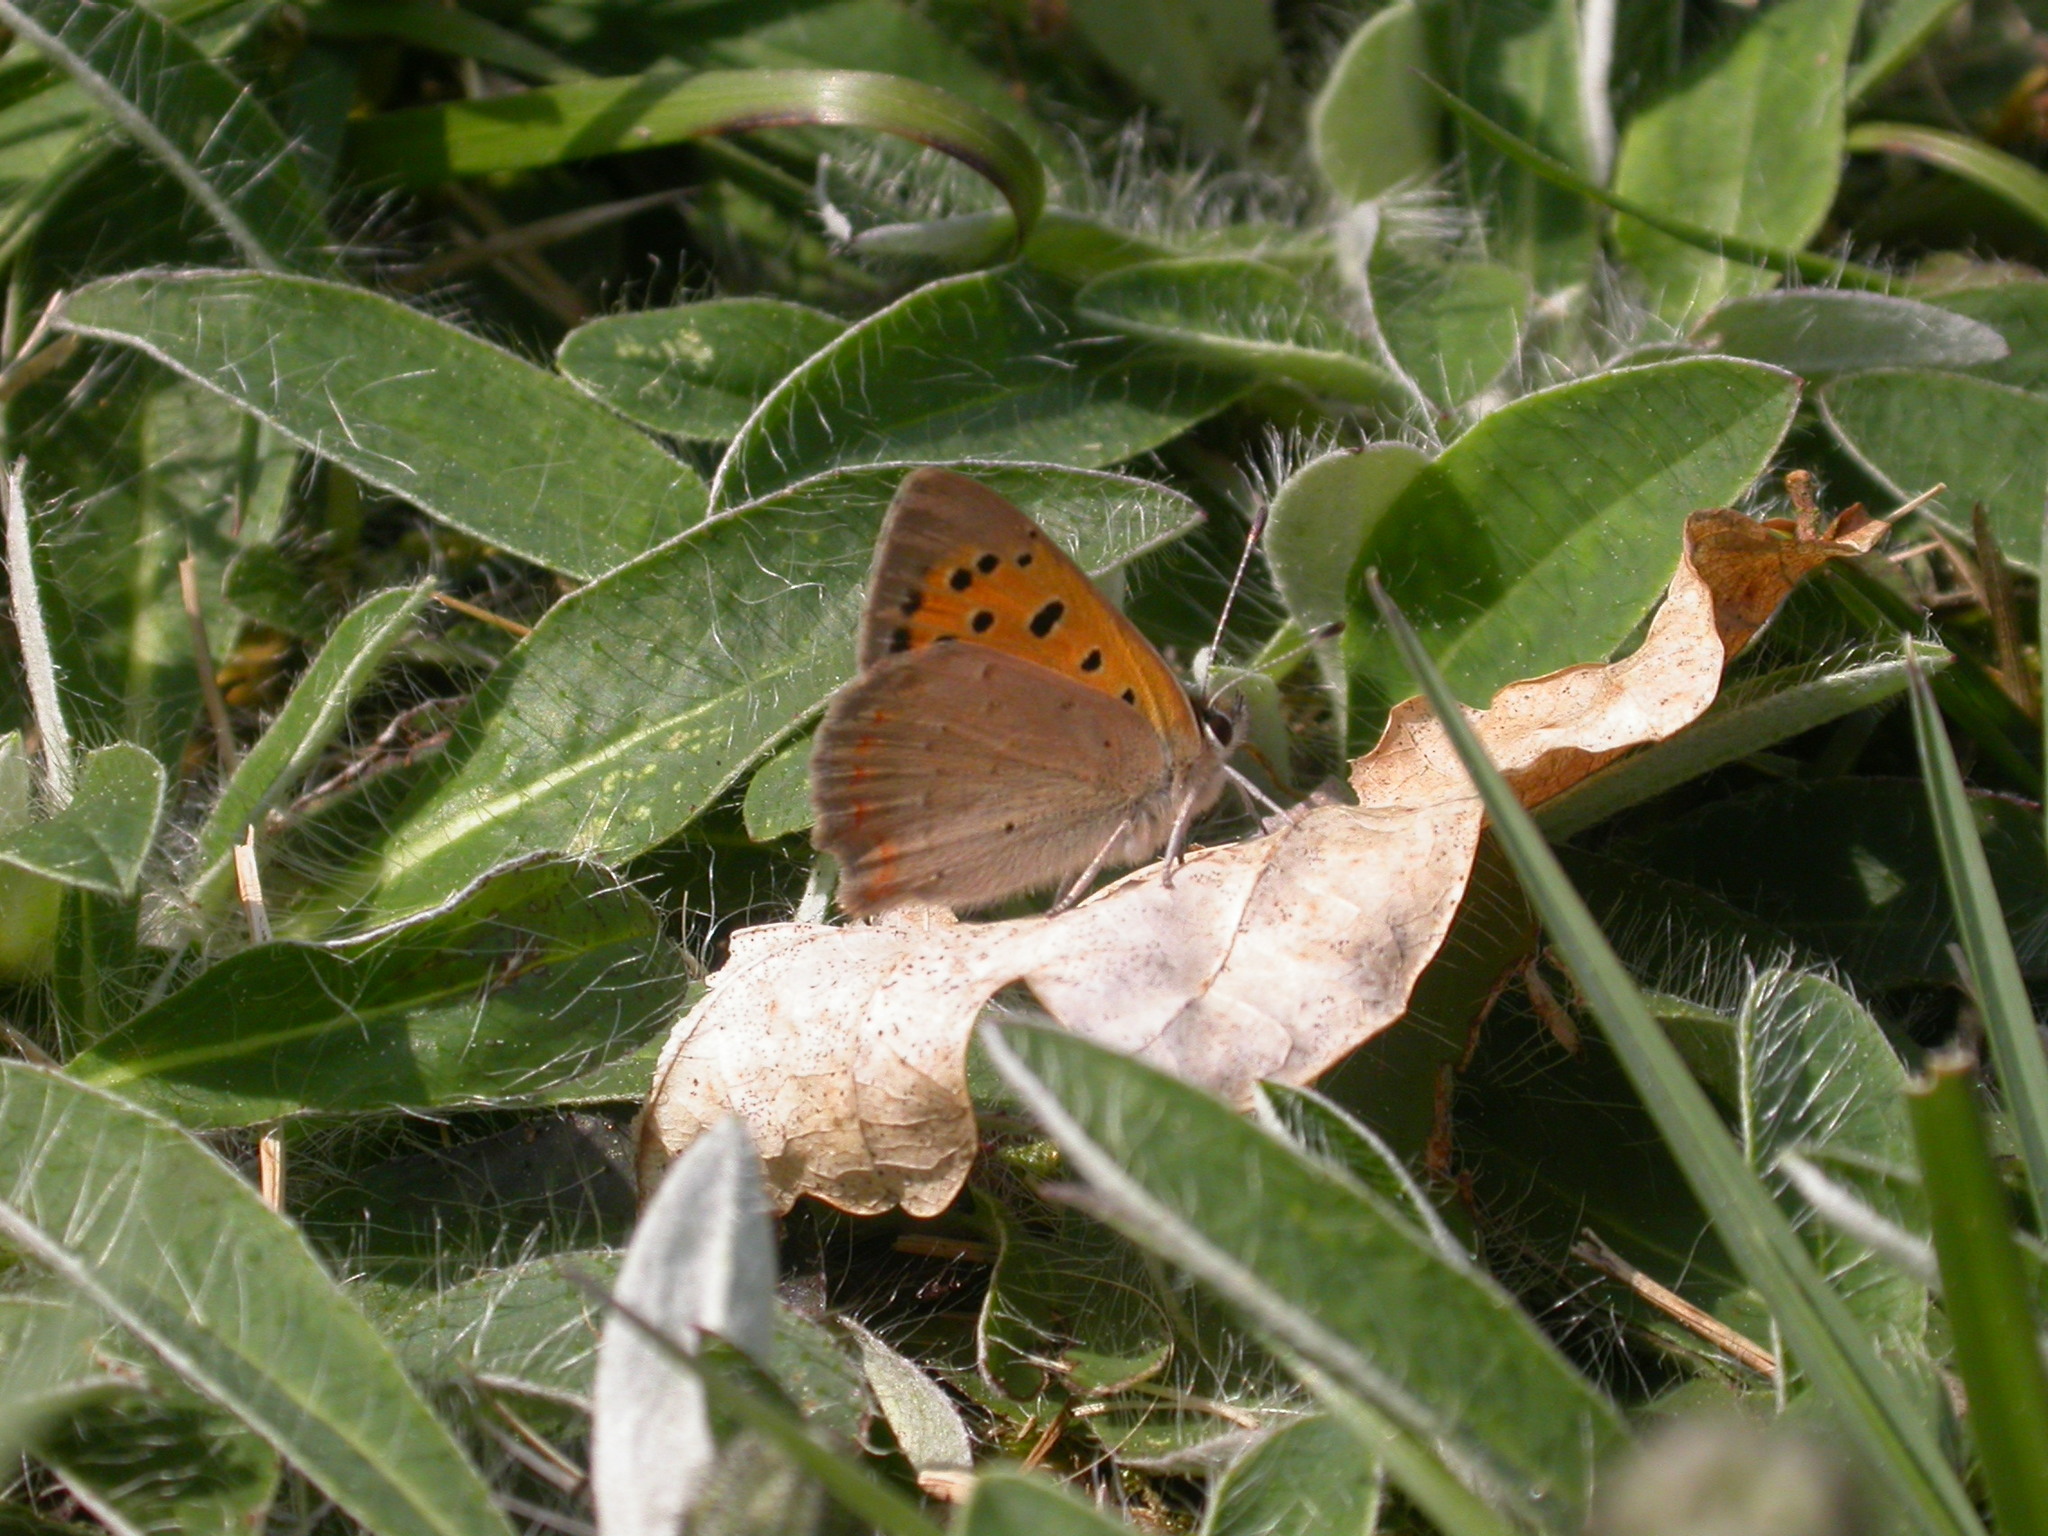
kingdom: Animalia
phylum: Arthropoda
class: Insecta
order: Lepidoptera
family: Lycaenidae
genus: Lycaena
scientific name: Lycaena phlaeas
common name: Small copper
